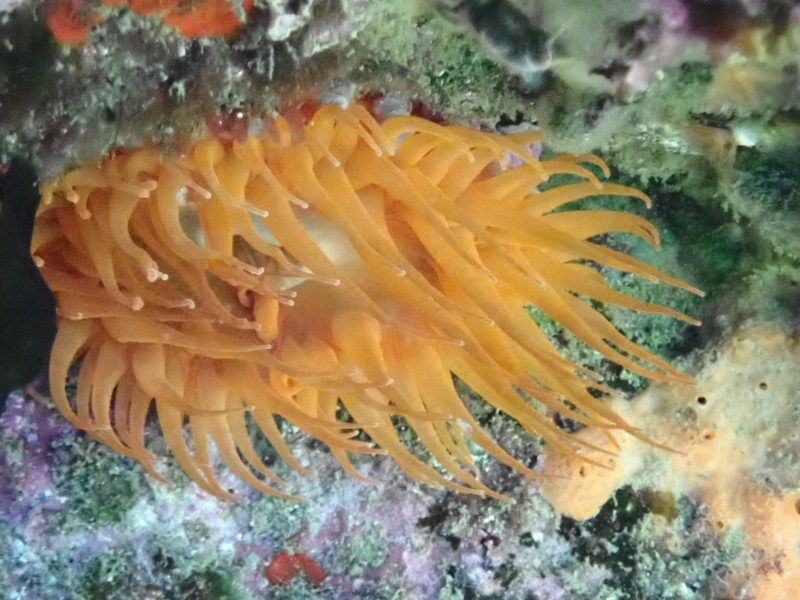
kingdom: Animalia
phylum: Cnidaria
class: Anthozoa
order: Actiniaria
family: Actiniidae
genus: Phlyctenanthus
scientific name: Phlyctenanthus australis
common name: Southern anemone
